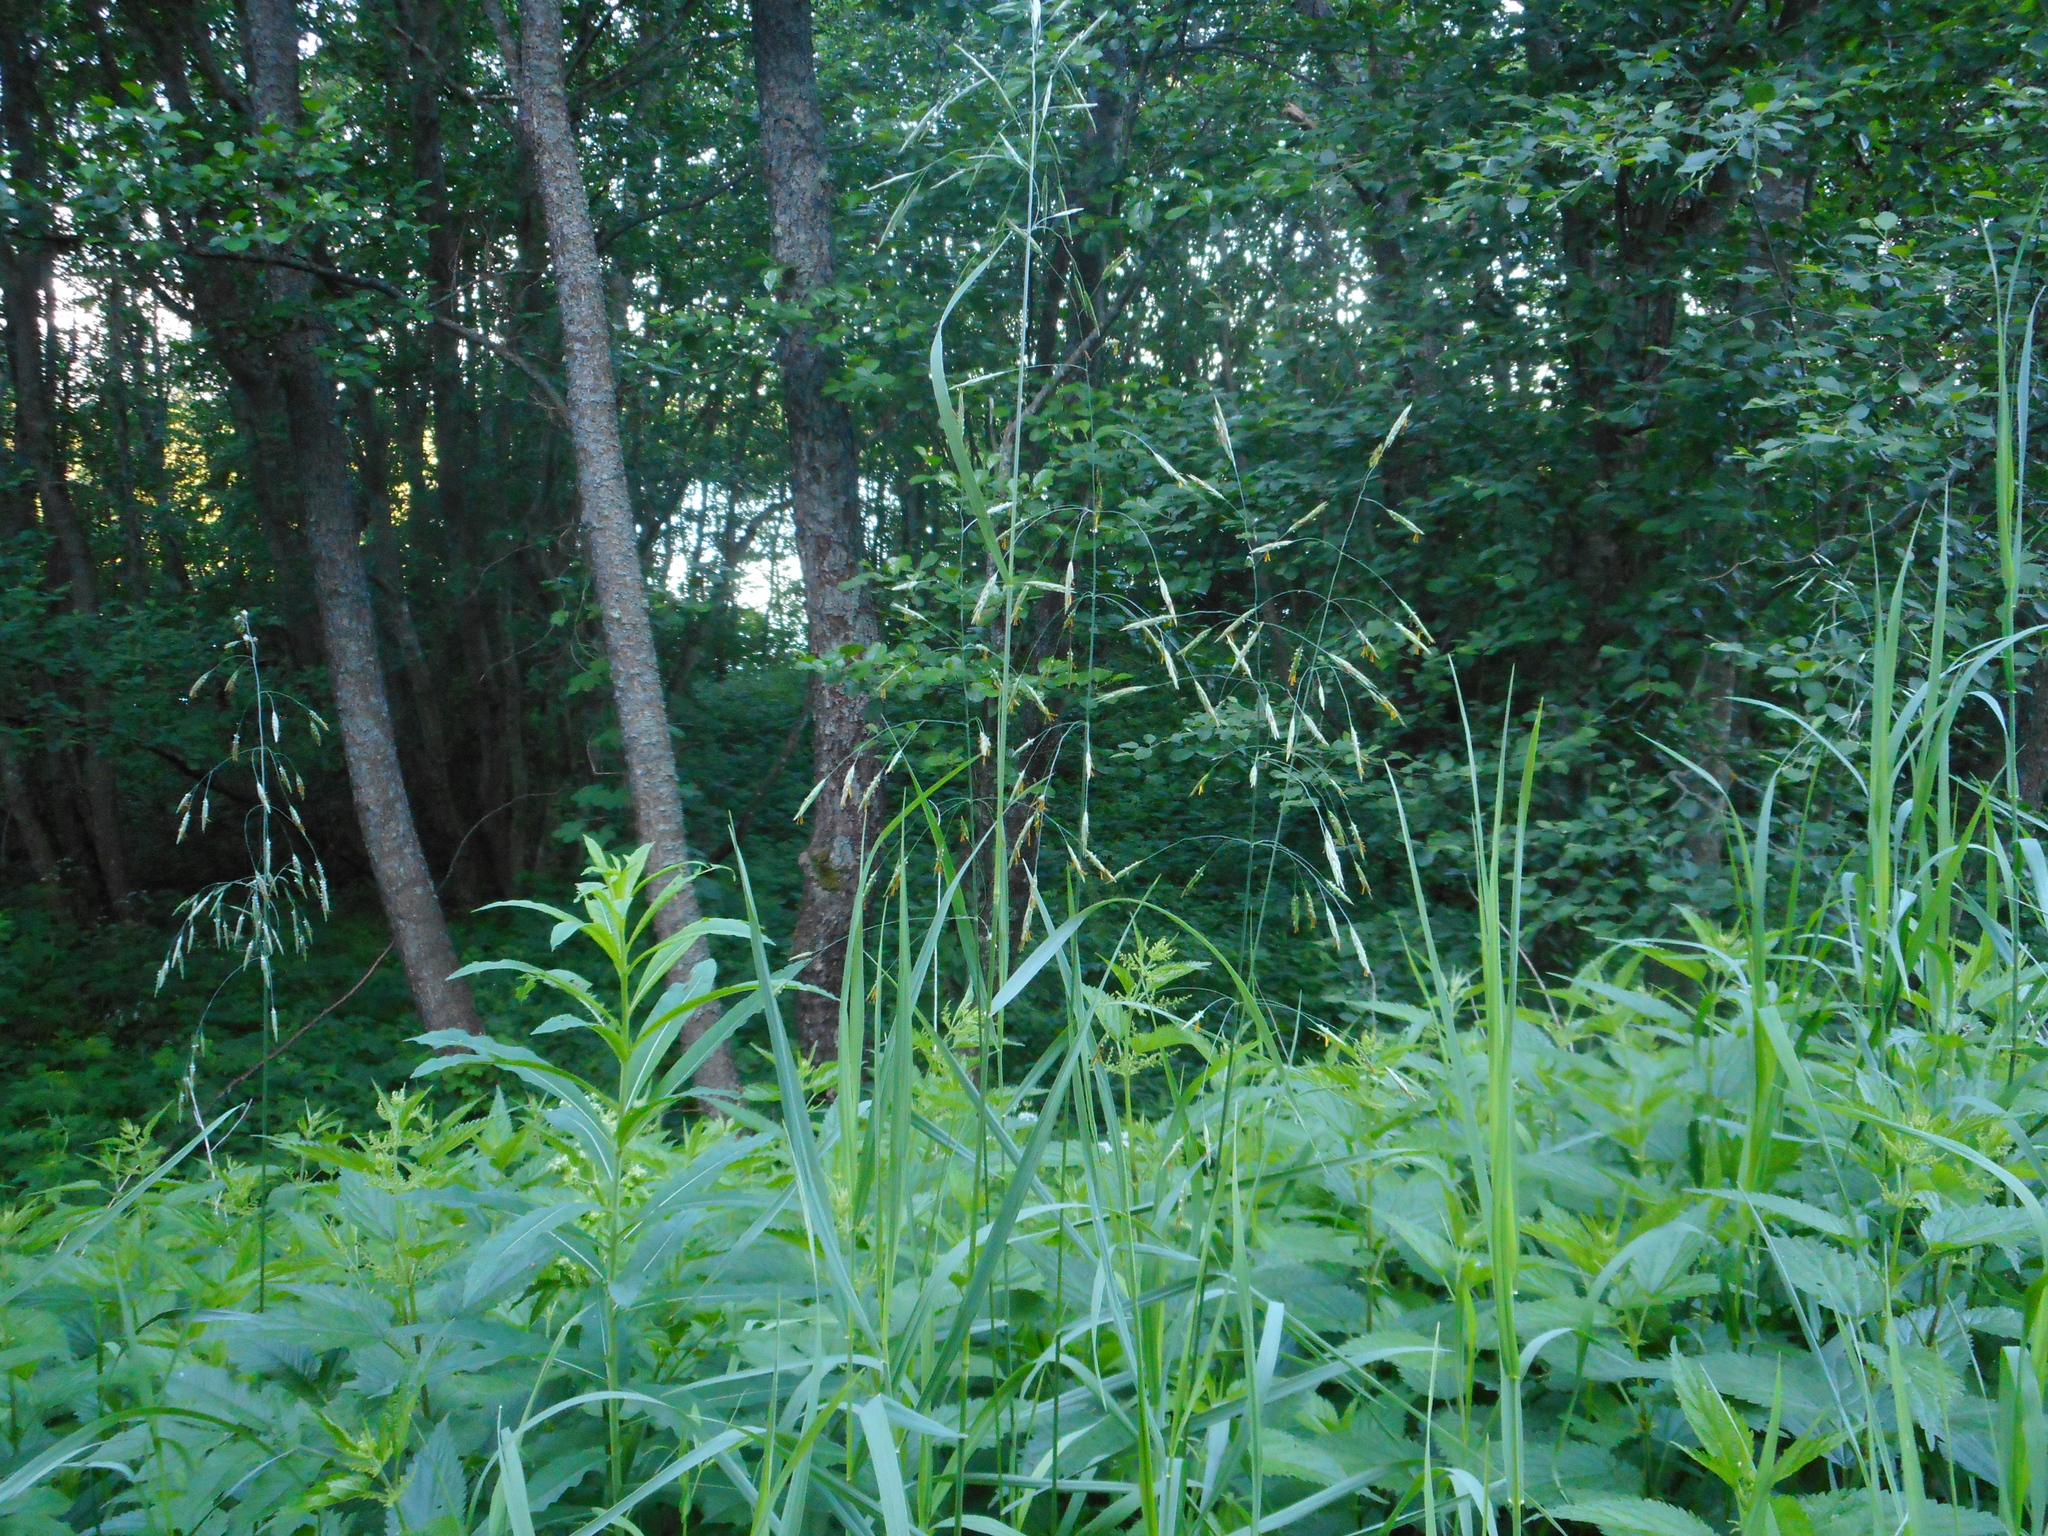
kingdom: Plantae
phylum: Tracheophyta
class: Liliopsida
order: Poales
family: Poaceae
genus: Bromus
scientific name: Bromus inermis
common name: Smooth brome
